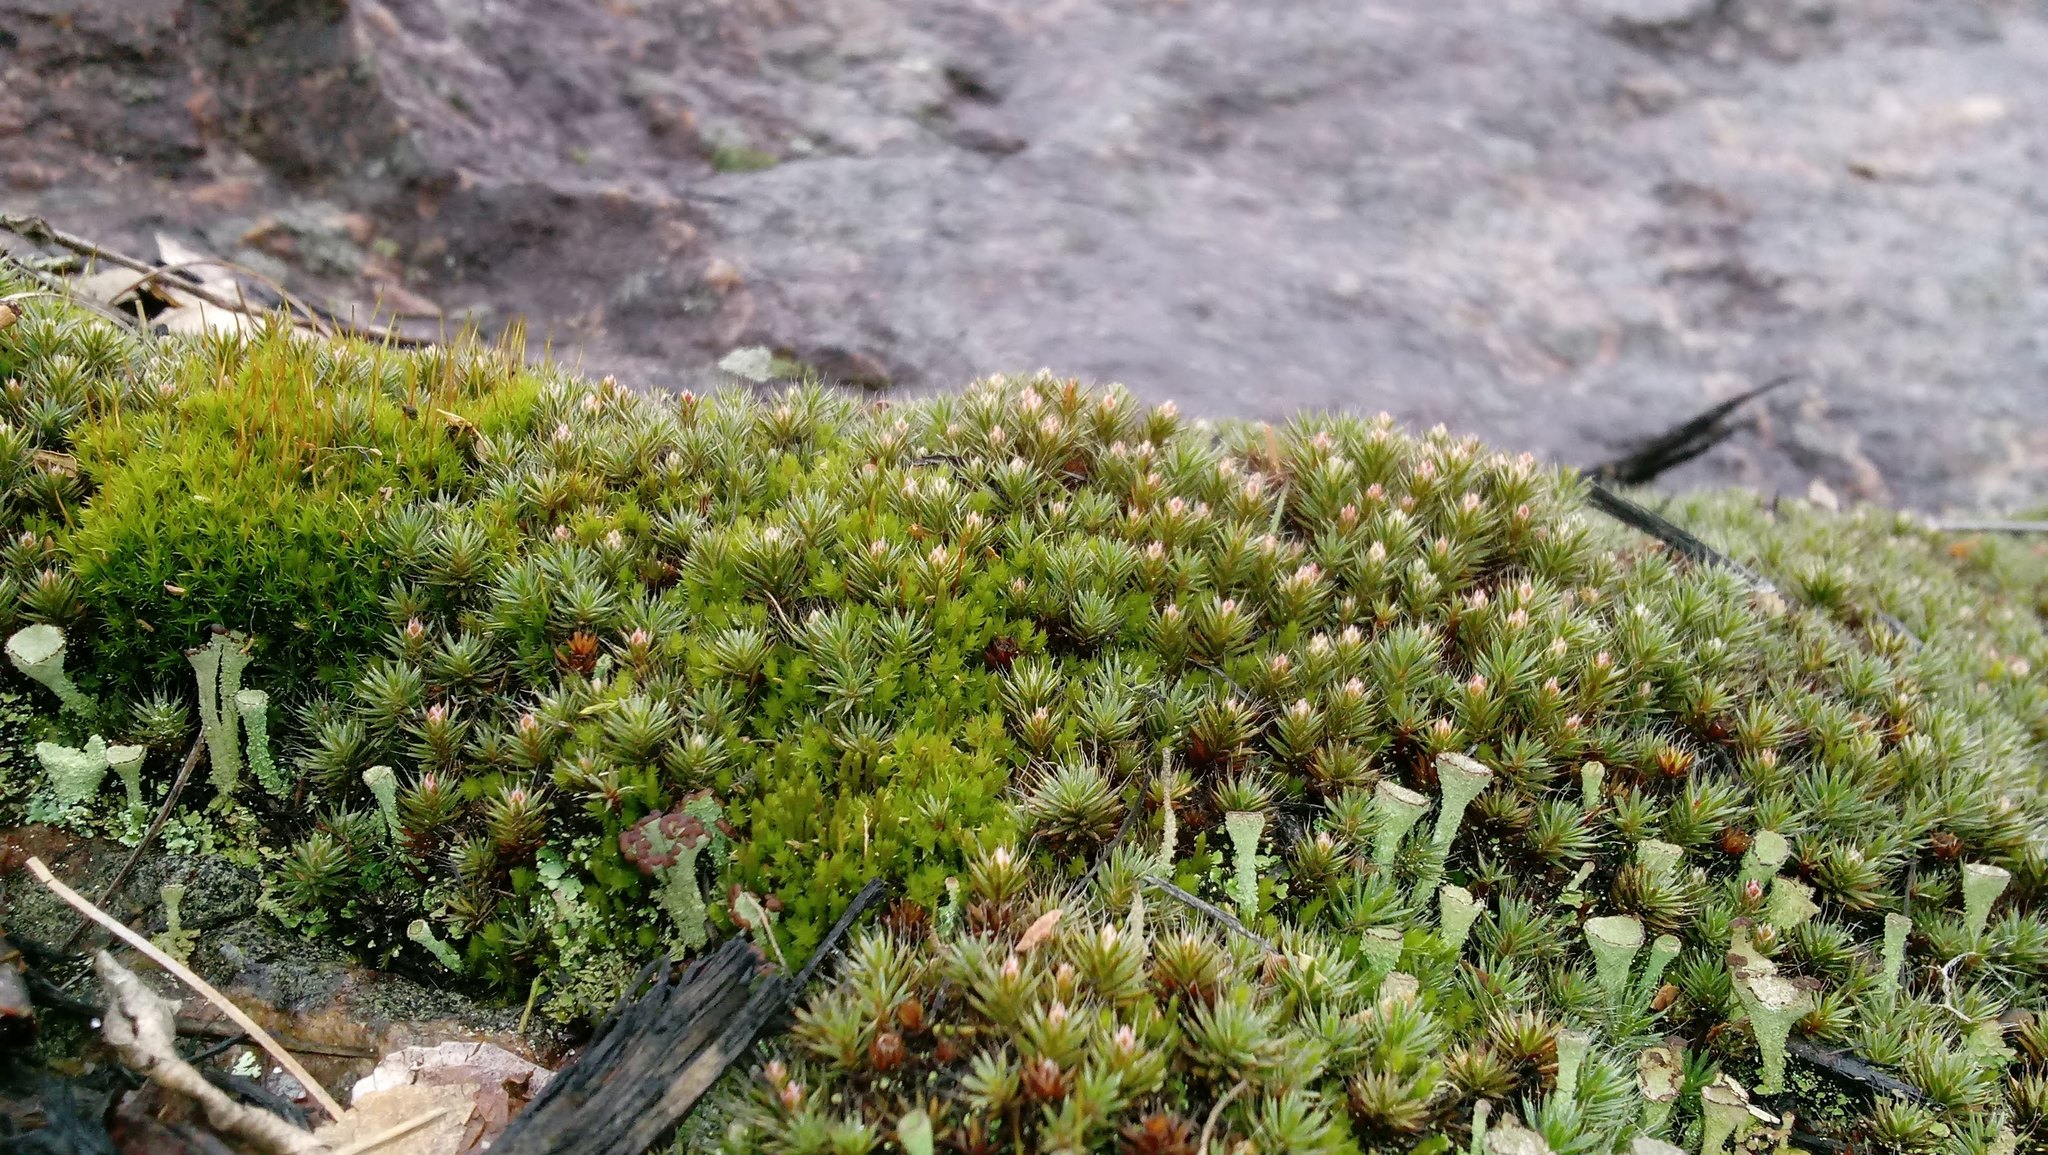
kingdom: Plantae
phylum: Bryophyta
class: Polytrichopsida
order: Polytrichales
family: Polytrichaceae
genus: Polytrichum
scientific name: Polytrichum piliferum
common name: Bristly haircap
